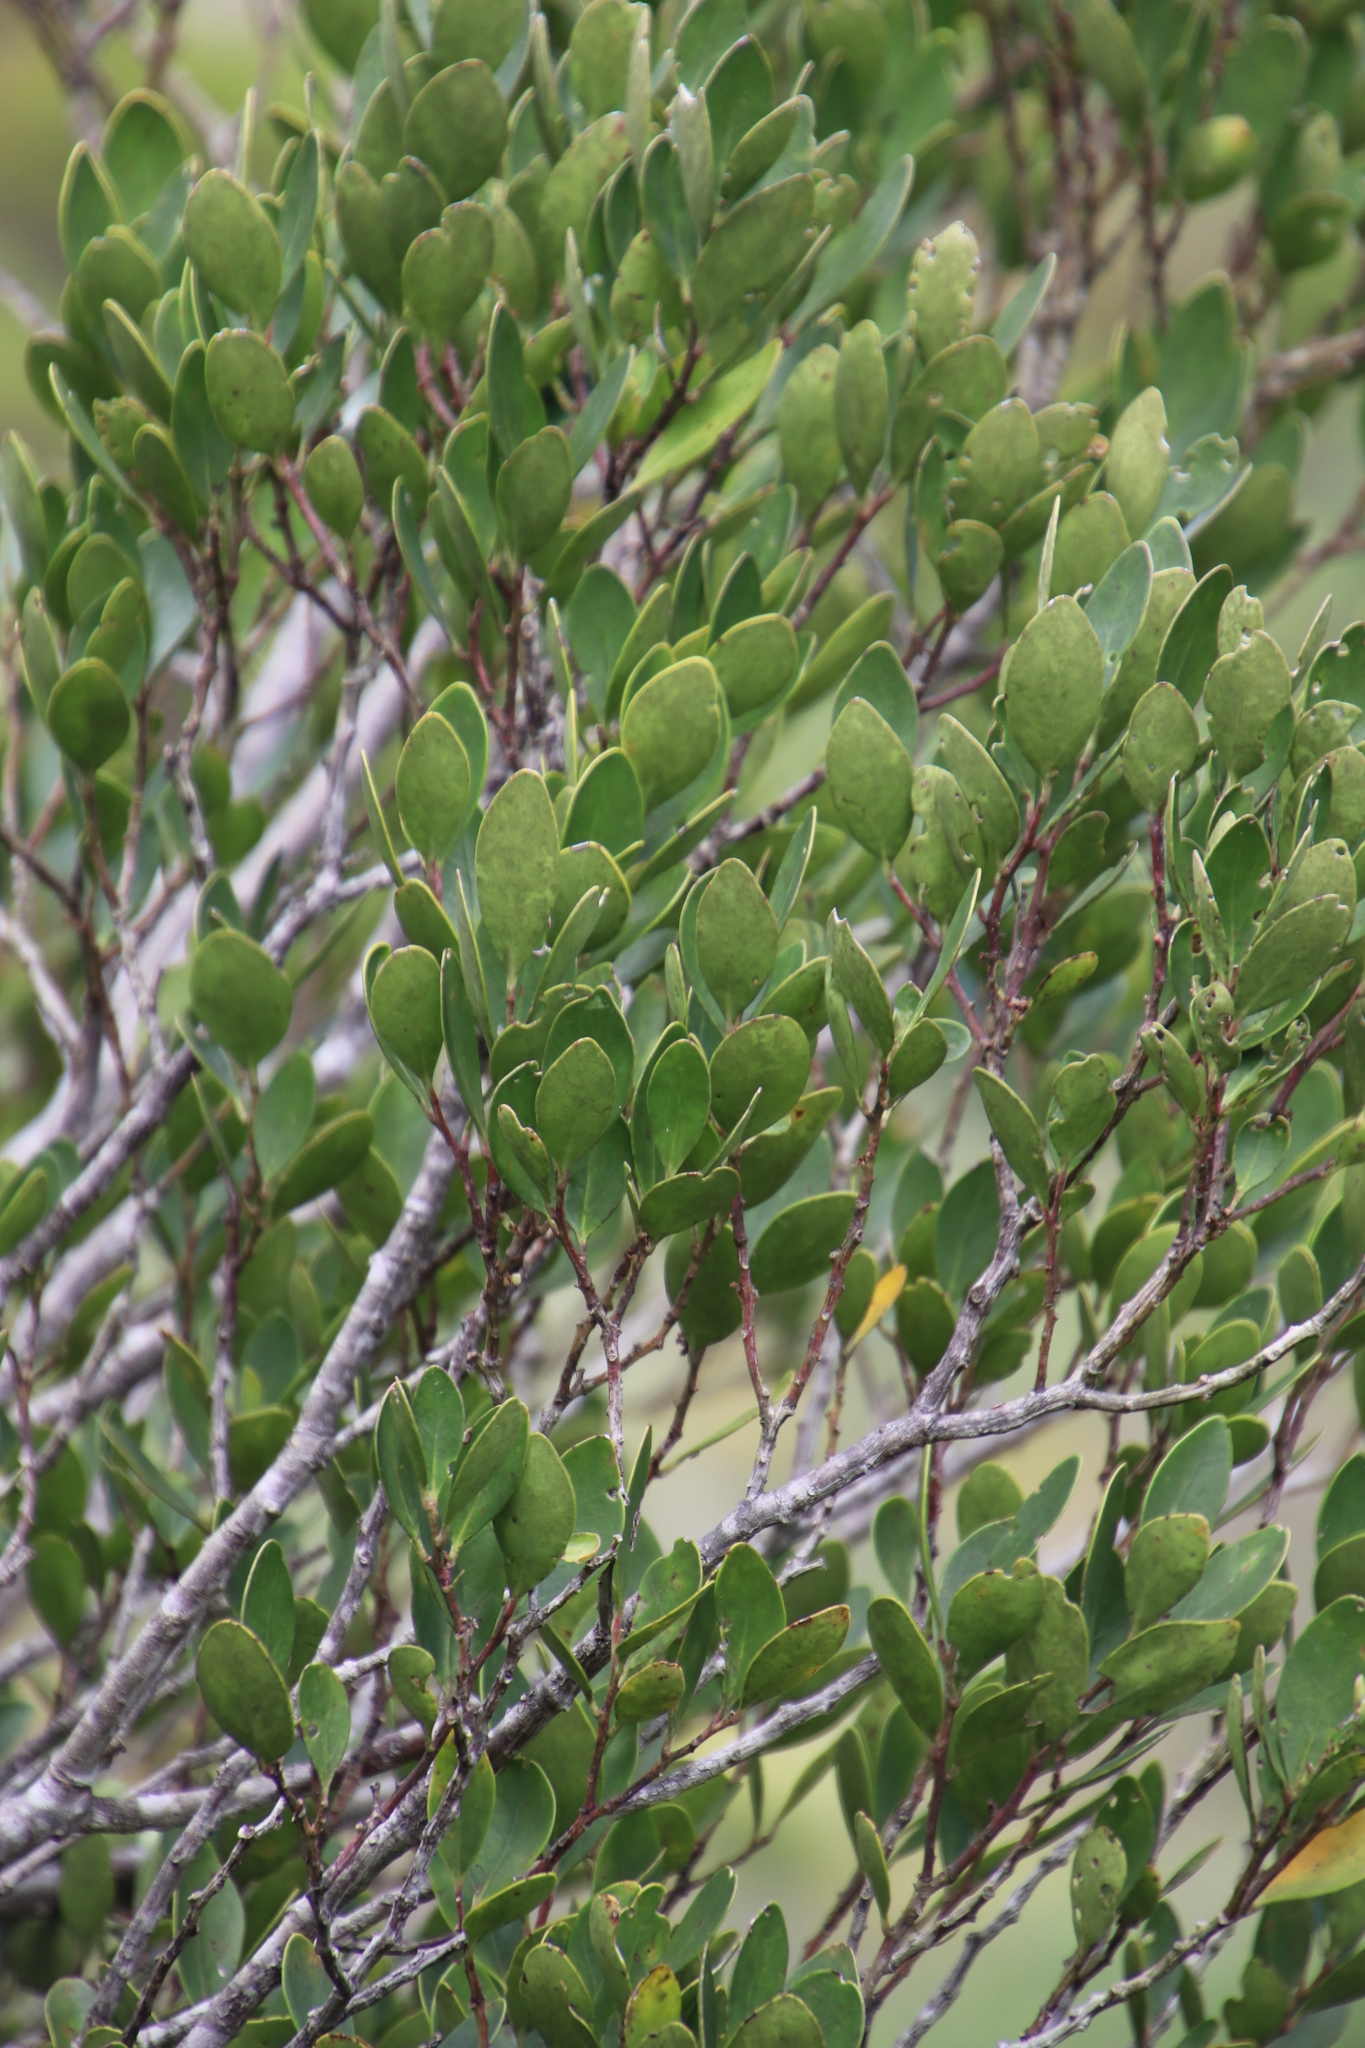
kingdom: Plantae
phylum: Tracheophyta
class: Magnoliopsida
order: Celastrales
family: Celastraceae
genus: Gymnosporia
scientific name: Gymnosporia laurina
